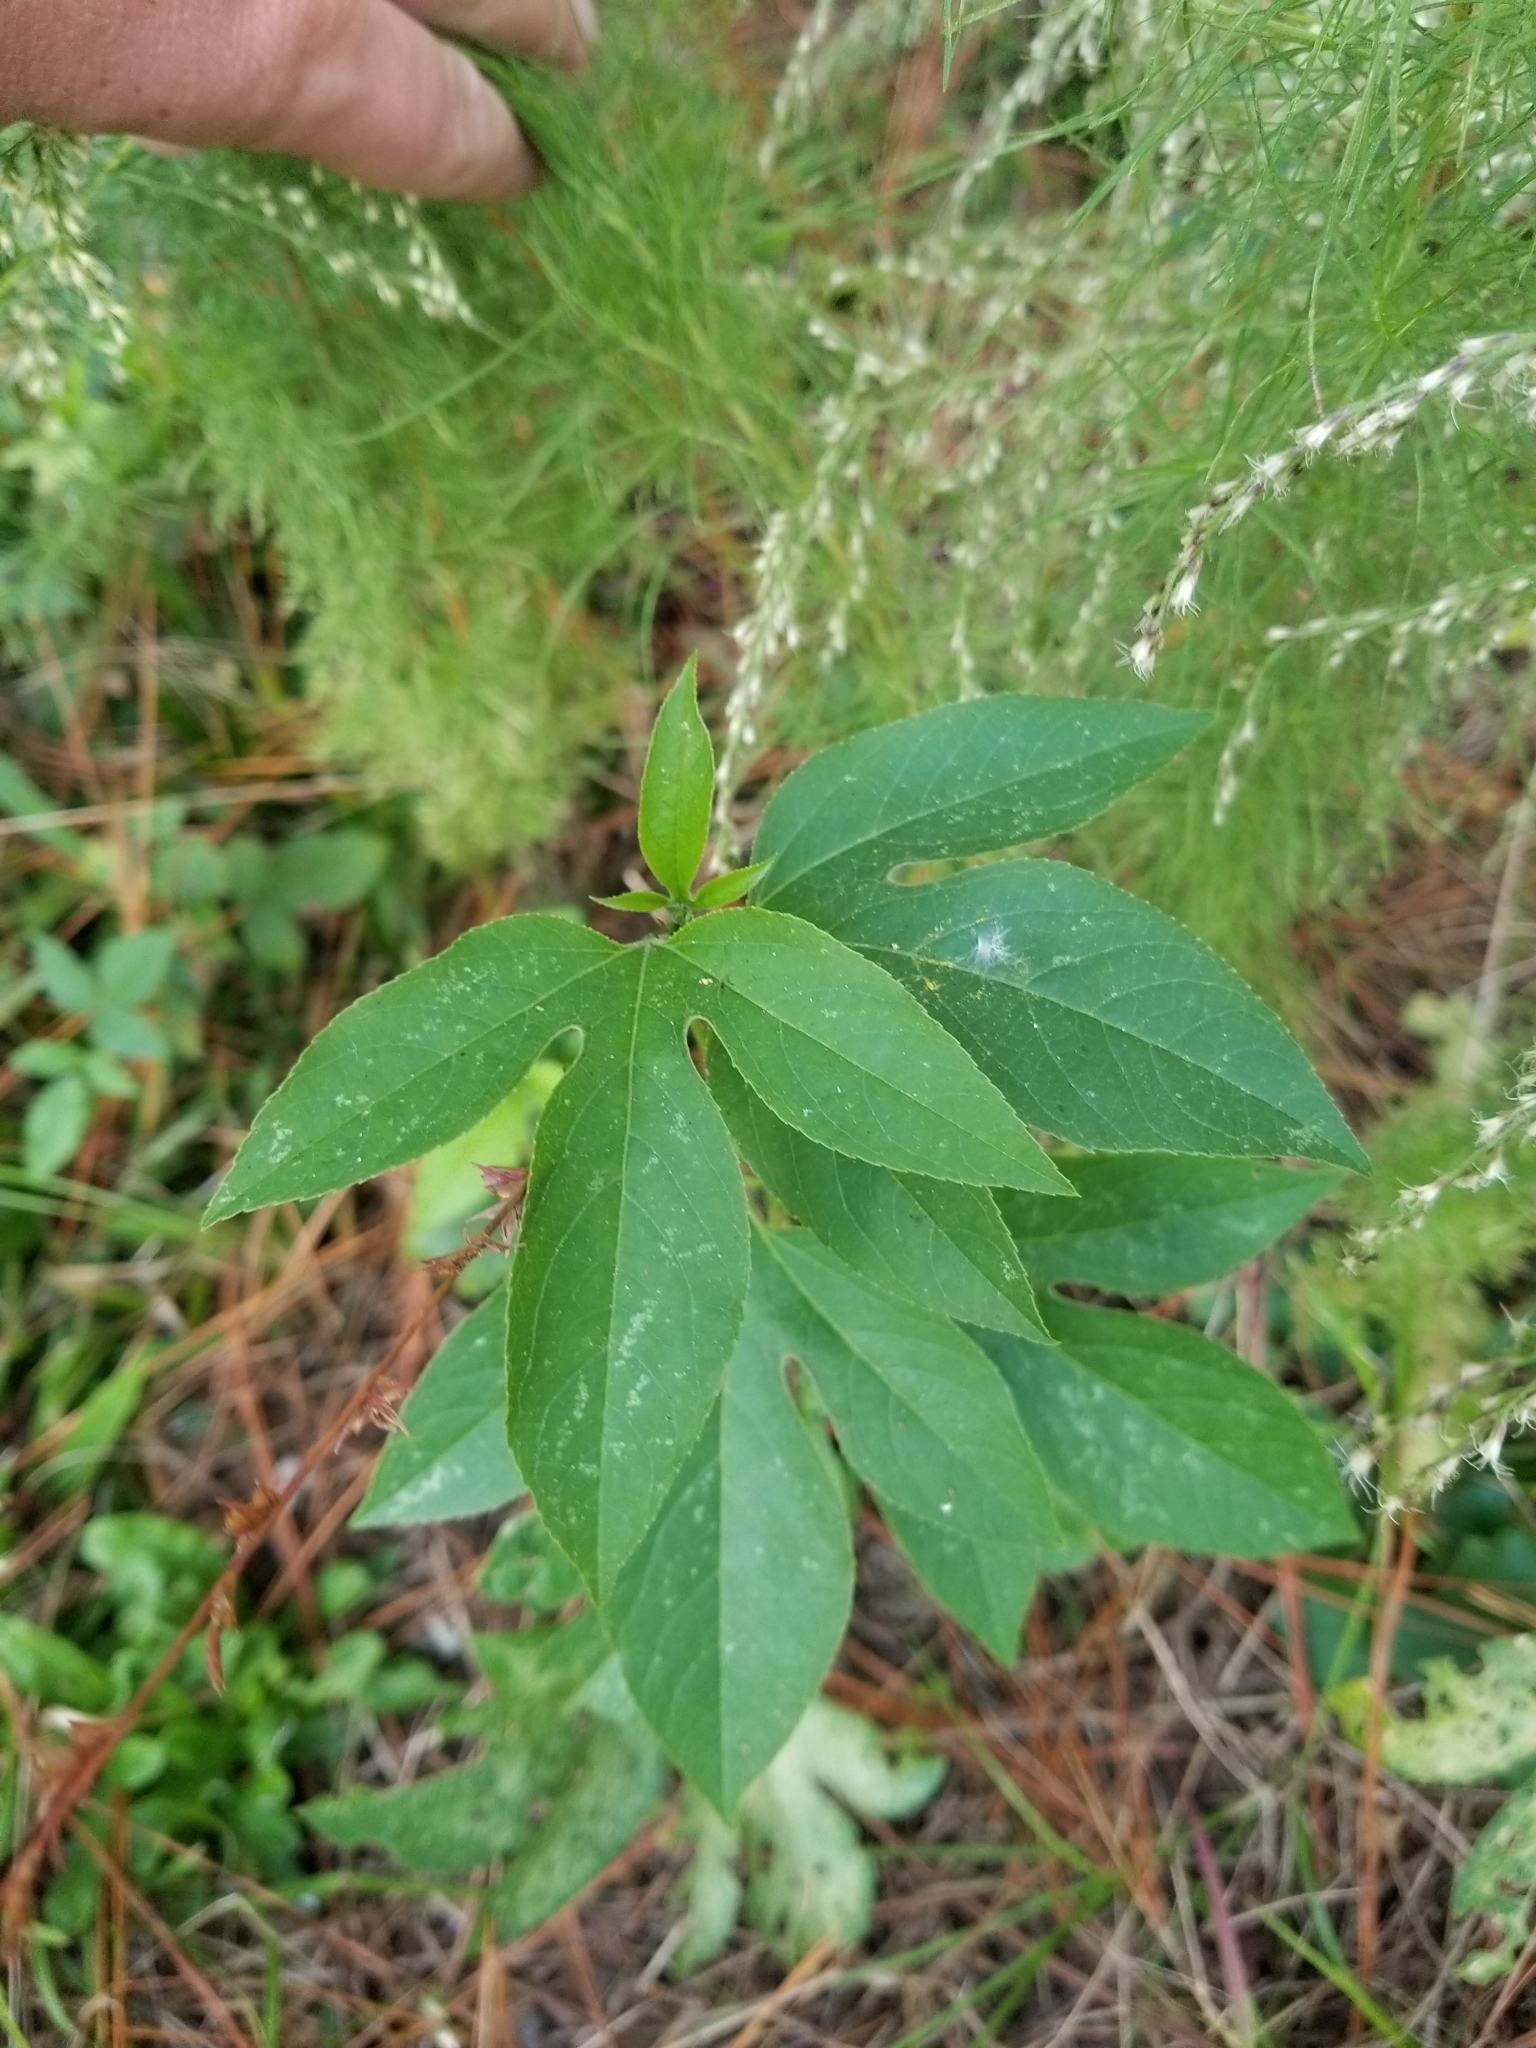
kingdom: Plantae
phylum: Tracheophyta
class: Magnoliopsida
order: Malpighiales
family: Passifloraceae
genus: Passiflora
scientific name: Passiflora incarnata
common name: Apricot-vine
